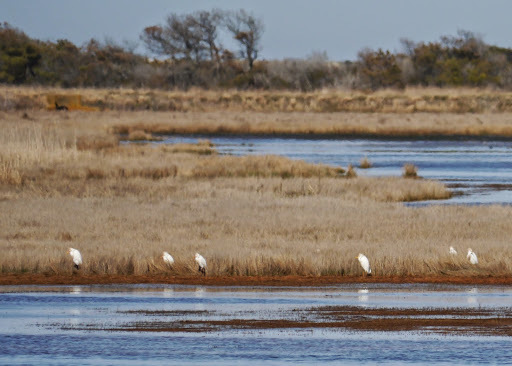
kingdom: Animalia
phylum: Chordata
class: Aves
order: Pelecaniformes
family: Ardeidae
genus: Bubulcus
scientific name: Bubulcus ibis
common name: Cattle egret
